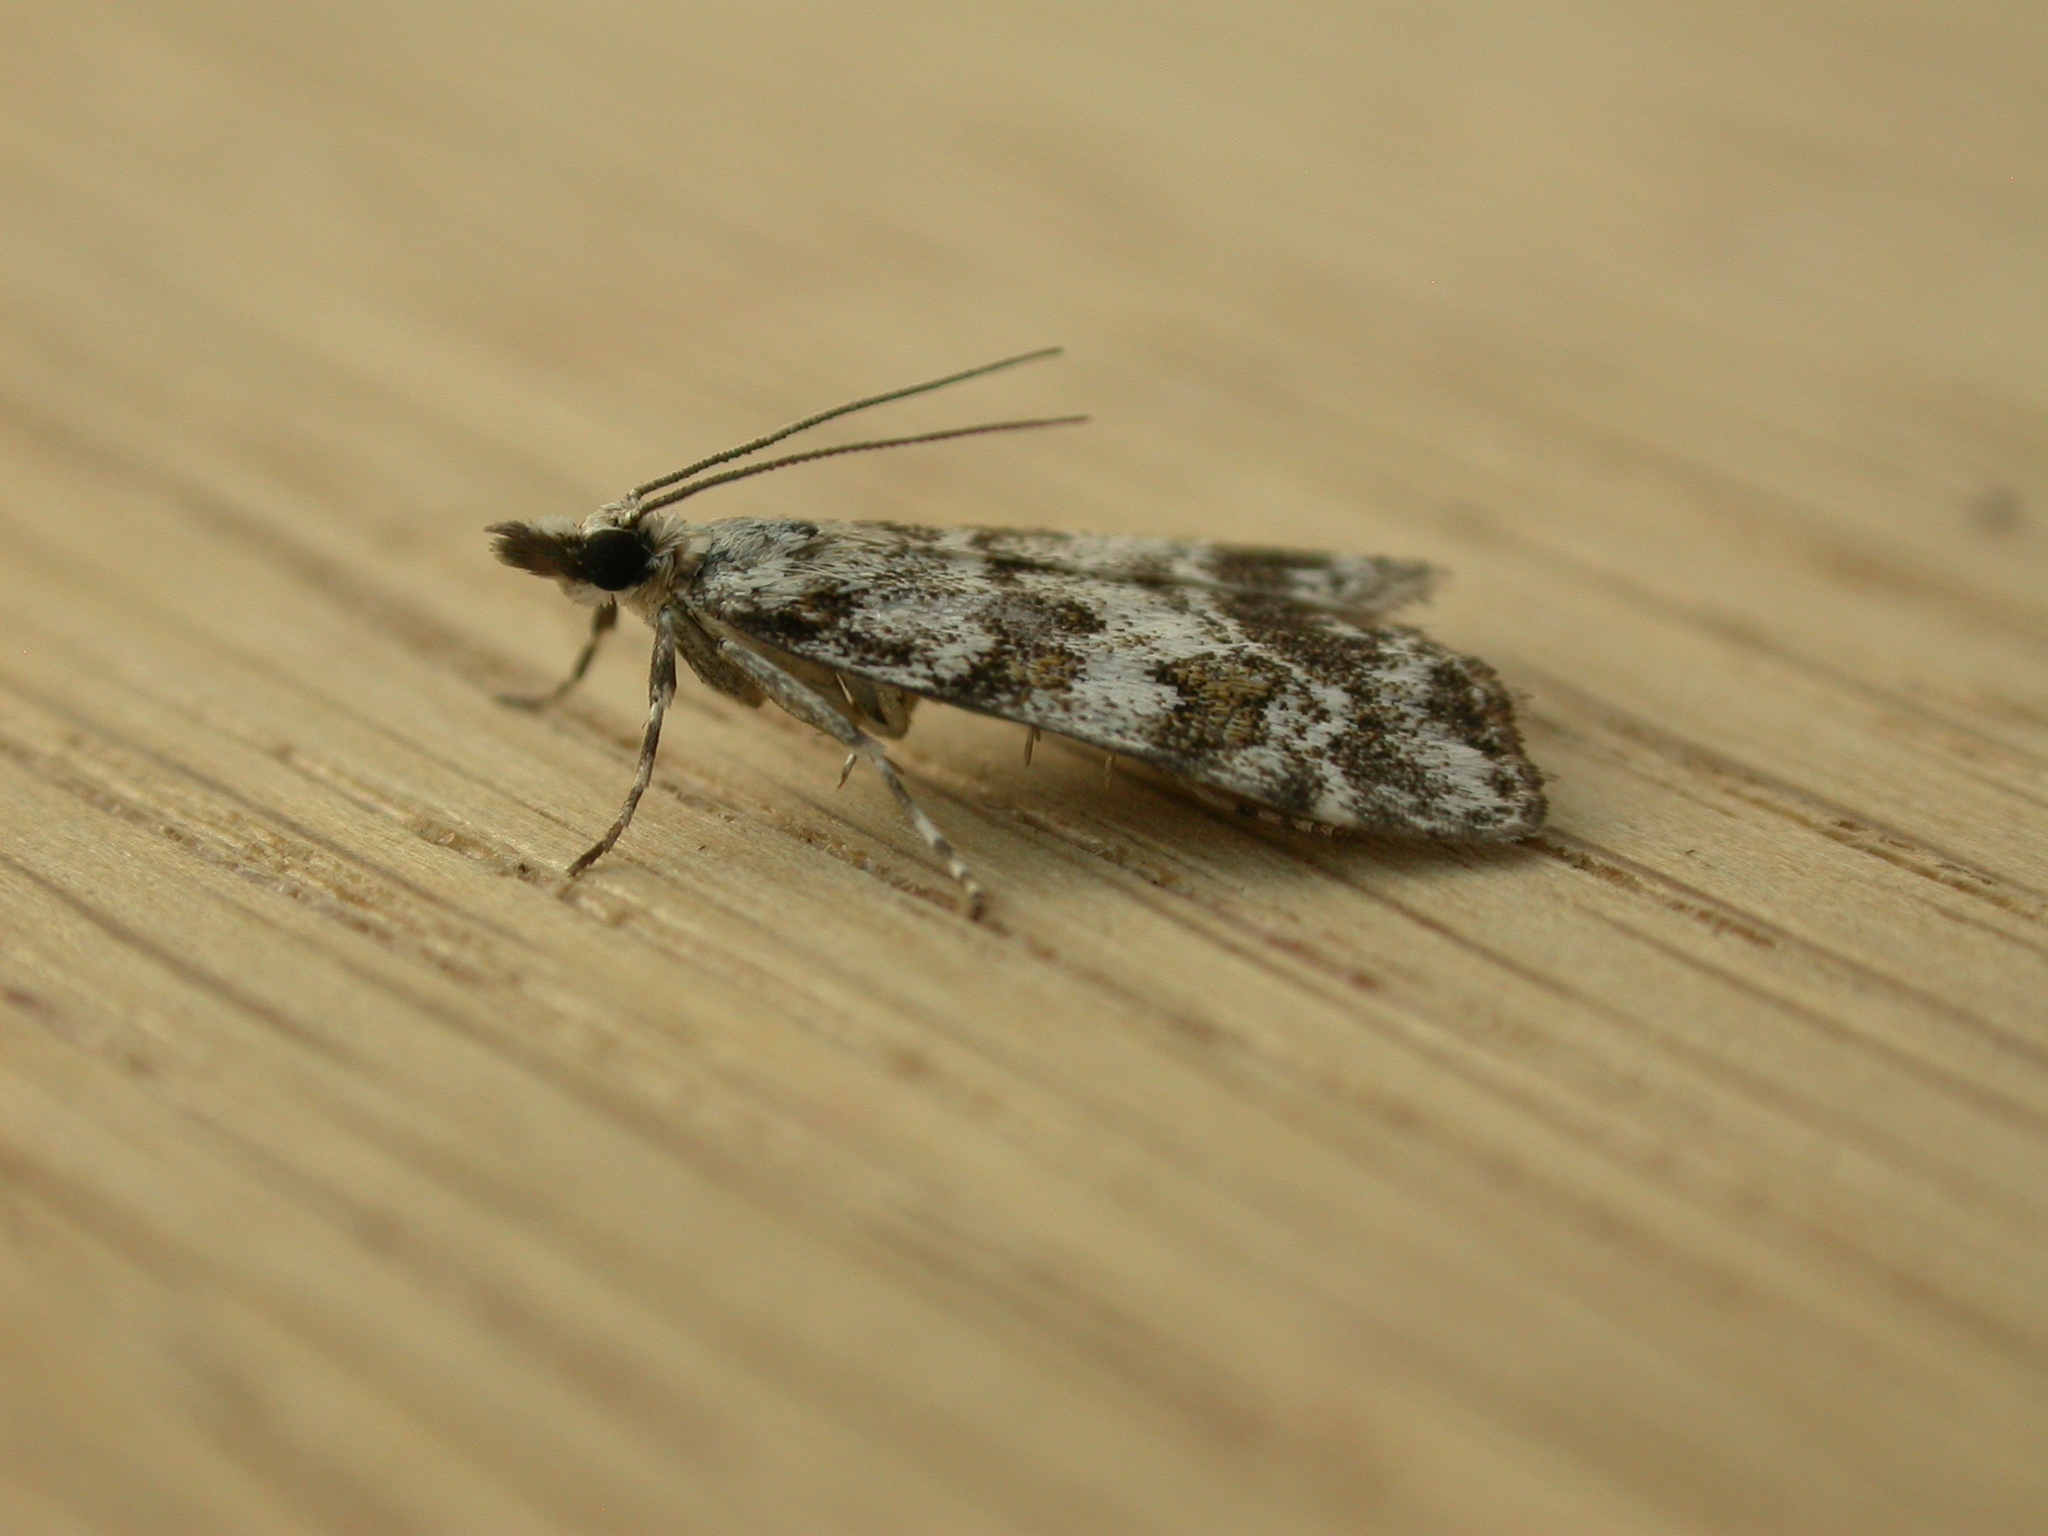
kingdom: Animalia
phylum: Arthropoda
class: Insecta
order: Lepidoptera
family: Crambidae
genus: Scoparia
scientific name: Scoparia pyralella
